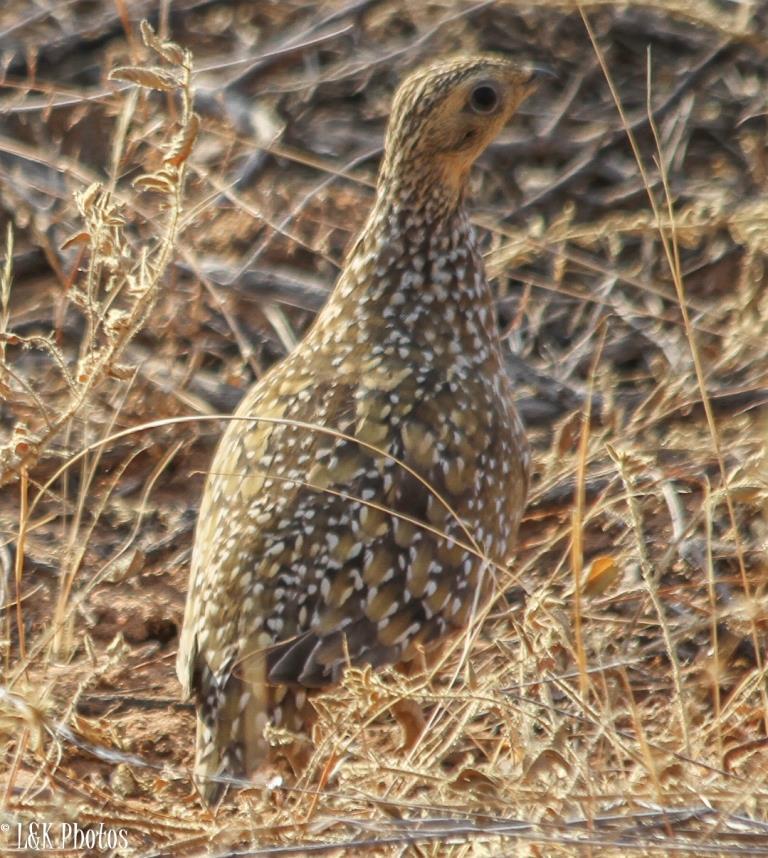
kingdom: Animalia
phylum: Chordata
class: Aves
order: Pteroclidiformes
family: Pteroclididae
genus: Pterocles
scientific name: Pterocles burchelli
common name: Burchell's sandgrouse
